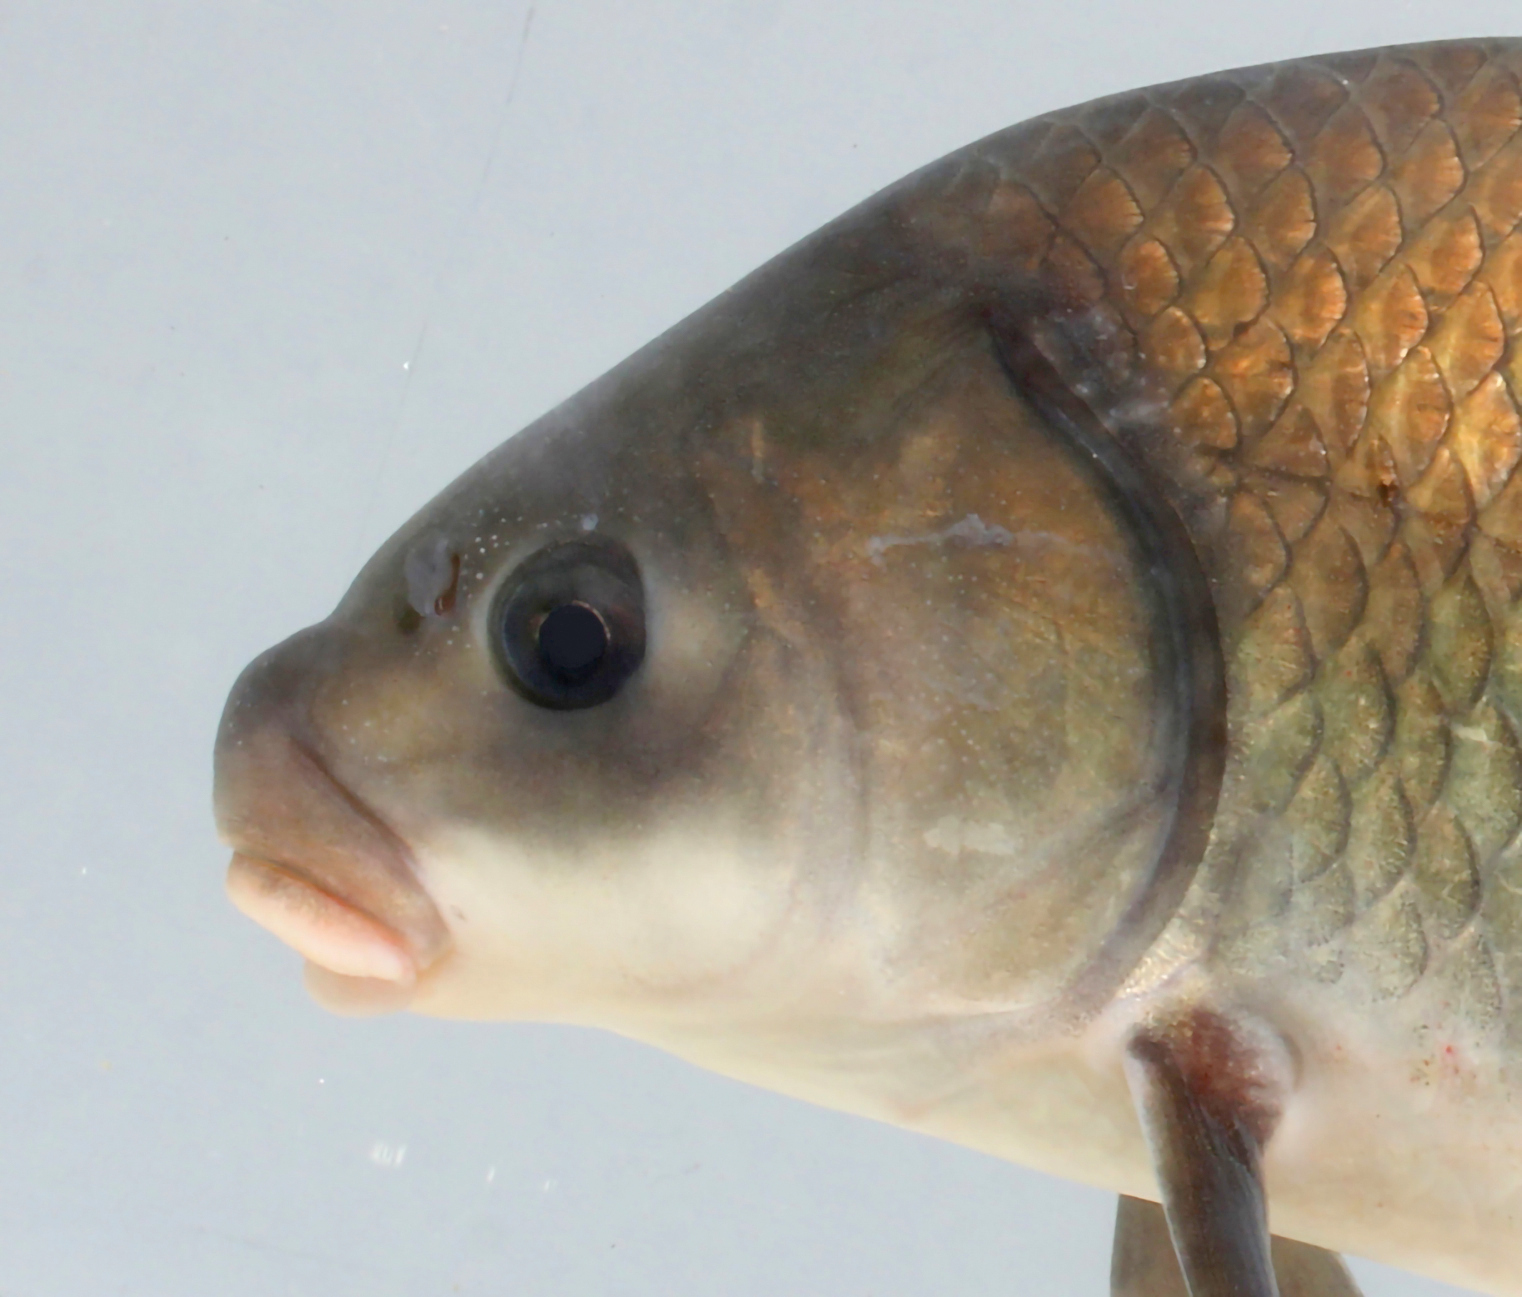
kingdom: Animalia
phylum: Chordata
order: Cypriniformes
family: Catostomidae
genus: Ictiobus
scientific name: Ictiobus bubalus
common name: Smallmouth buffalo
